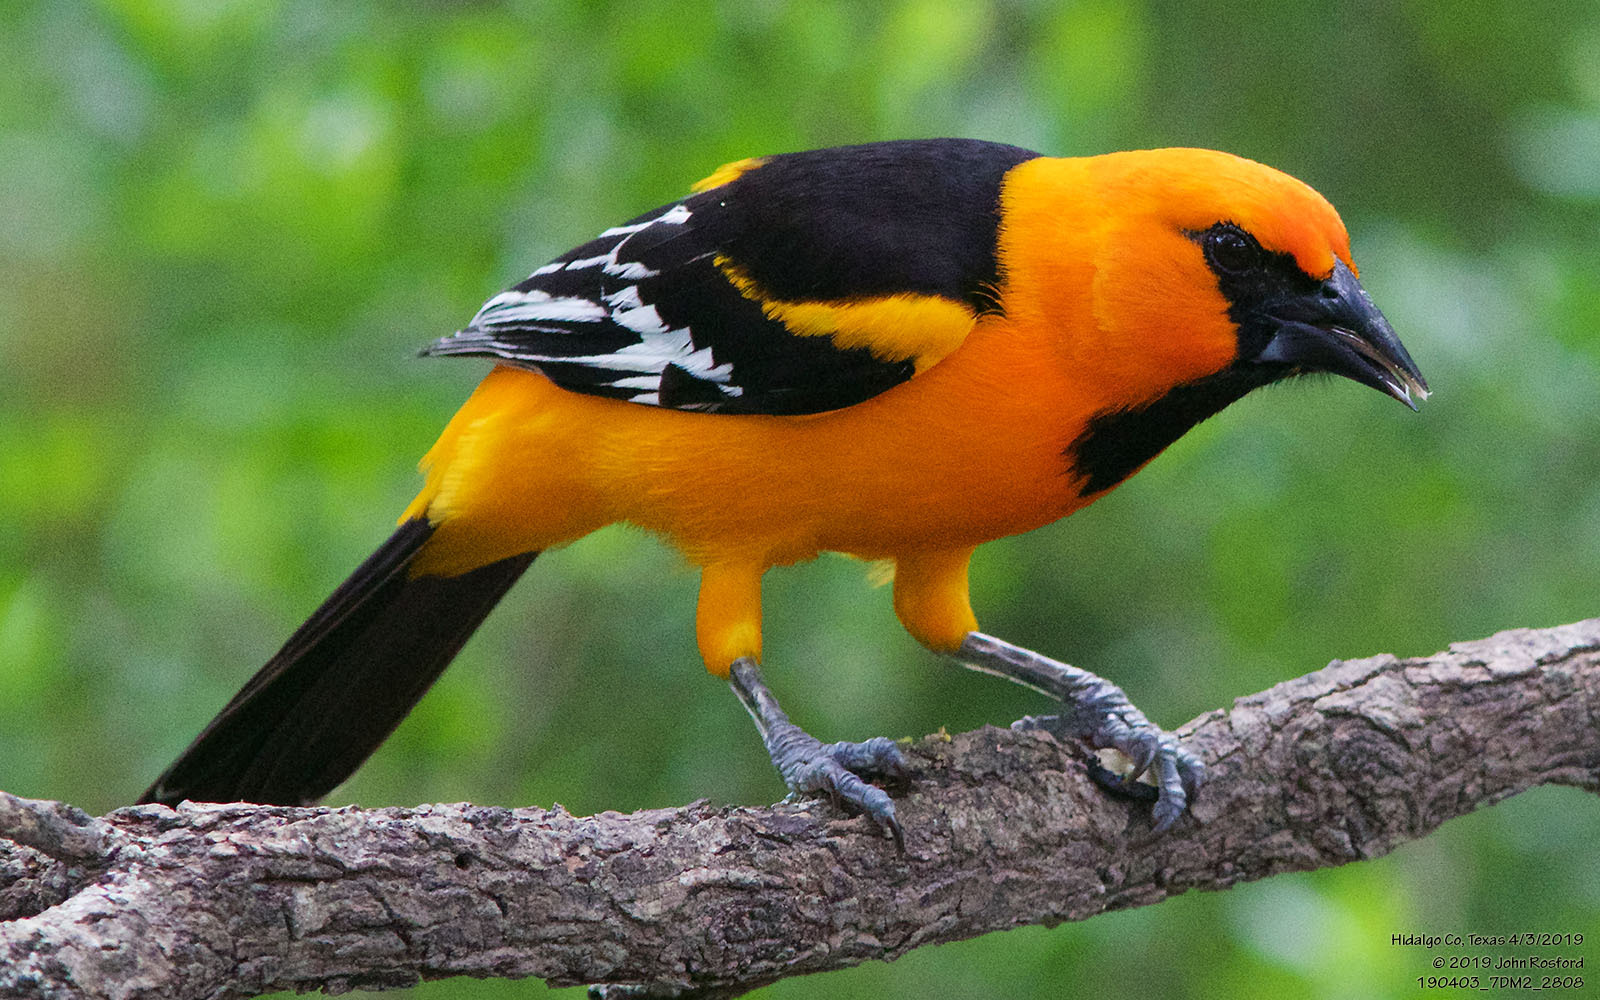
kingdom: Animalia
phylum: Chordata
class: Aves
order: Passeriformes
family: Icteridae
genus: Icterus
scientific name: Icterus gularis
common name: Altamira oriole
